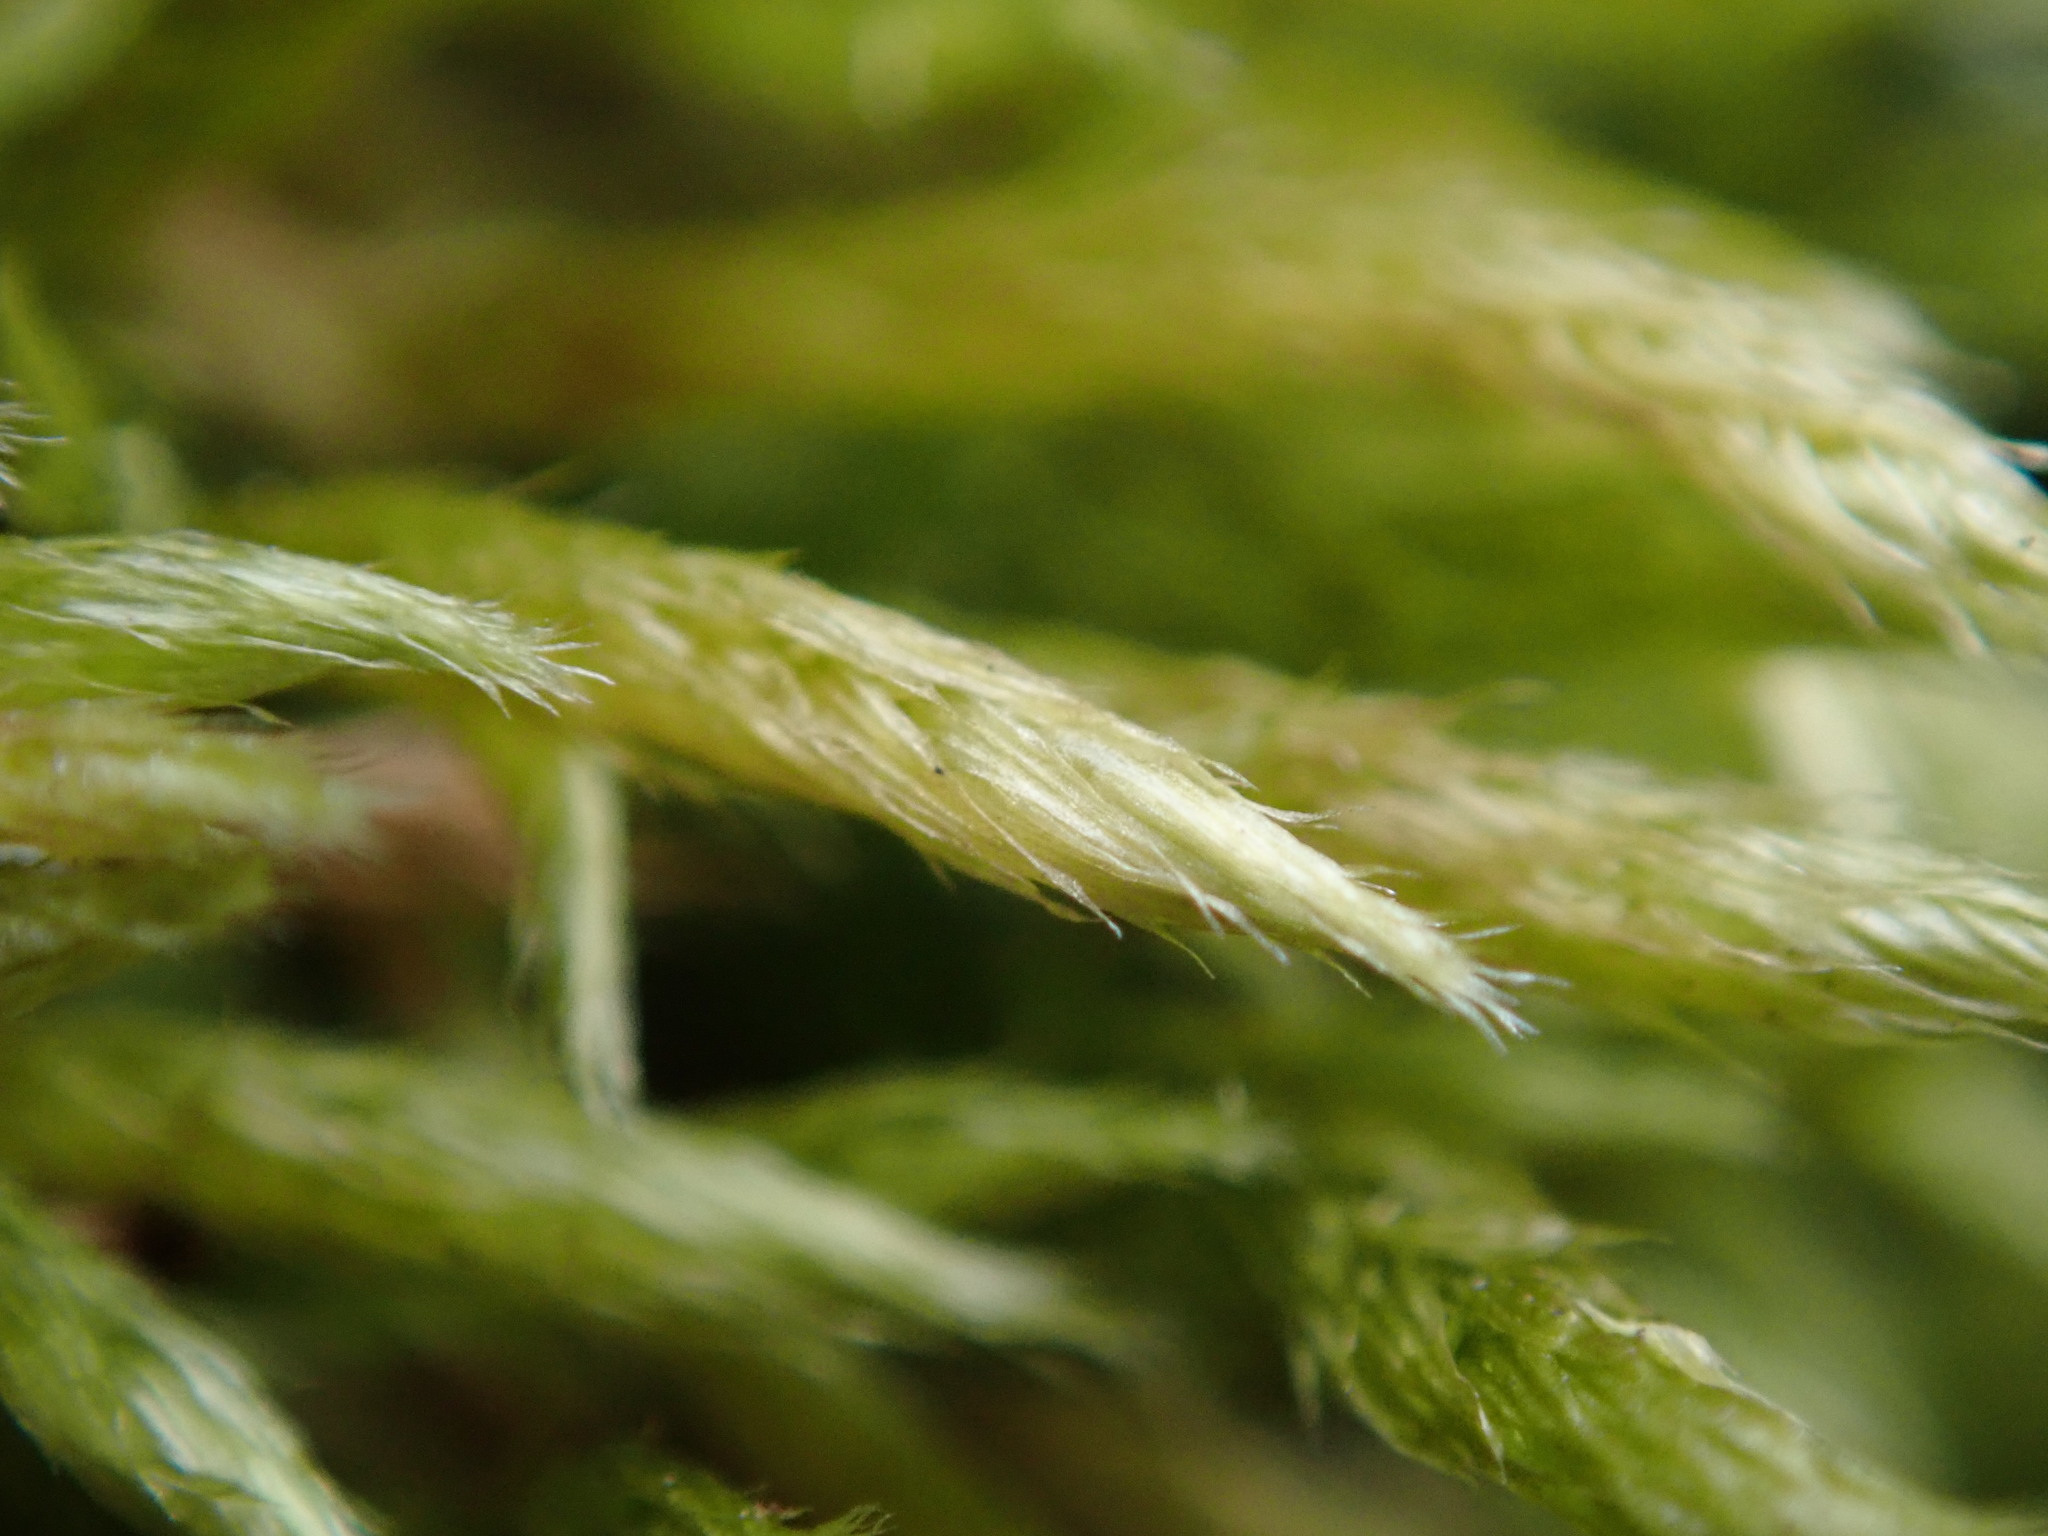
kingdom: Plantae
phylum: Bryophyta
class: Bryopsida
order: Hypnales
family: Brachytheciaceae
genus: Brachythecium
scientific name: Brachythecium albicans
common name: Whitish ragged moss
